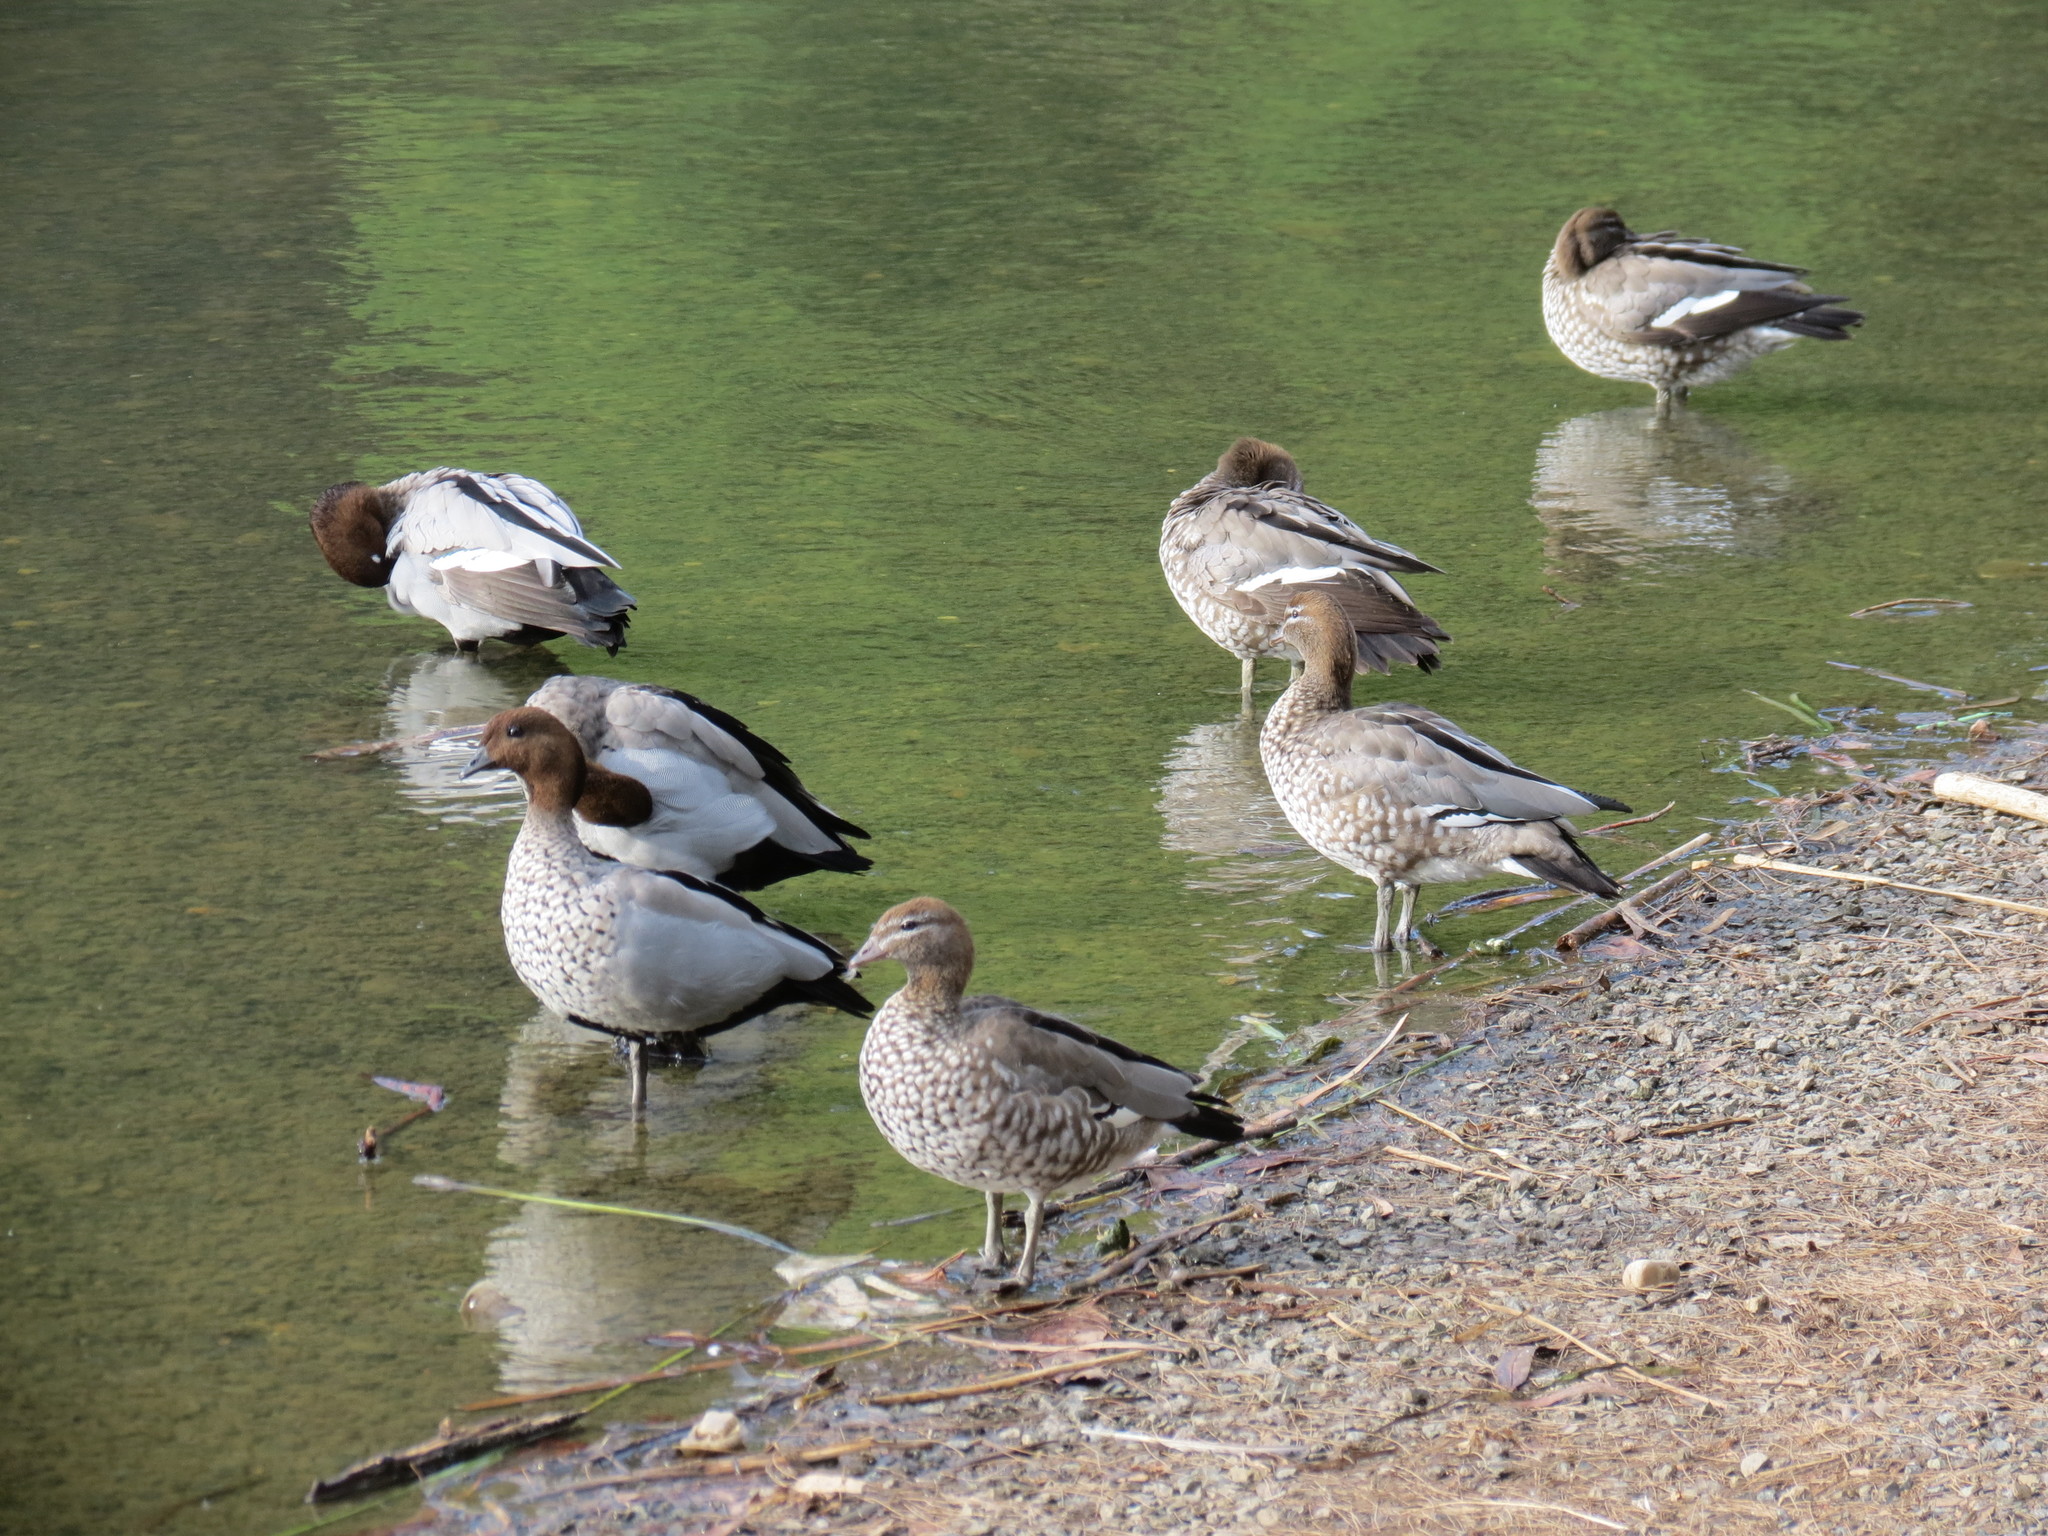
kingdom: Animalia
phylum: Chordata
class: Aves
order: Anseriformes
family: Anatidae
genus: Chenonetta
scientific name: Chenonetta jubata
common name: Maned duck
